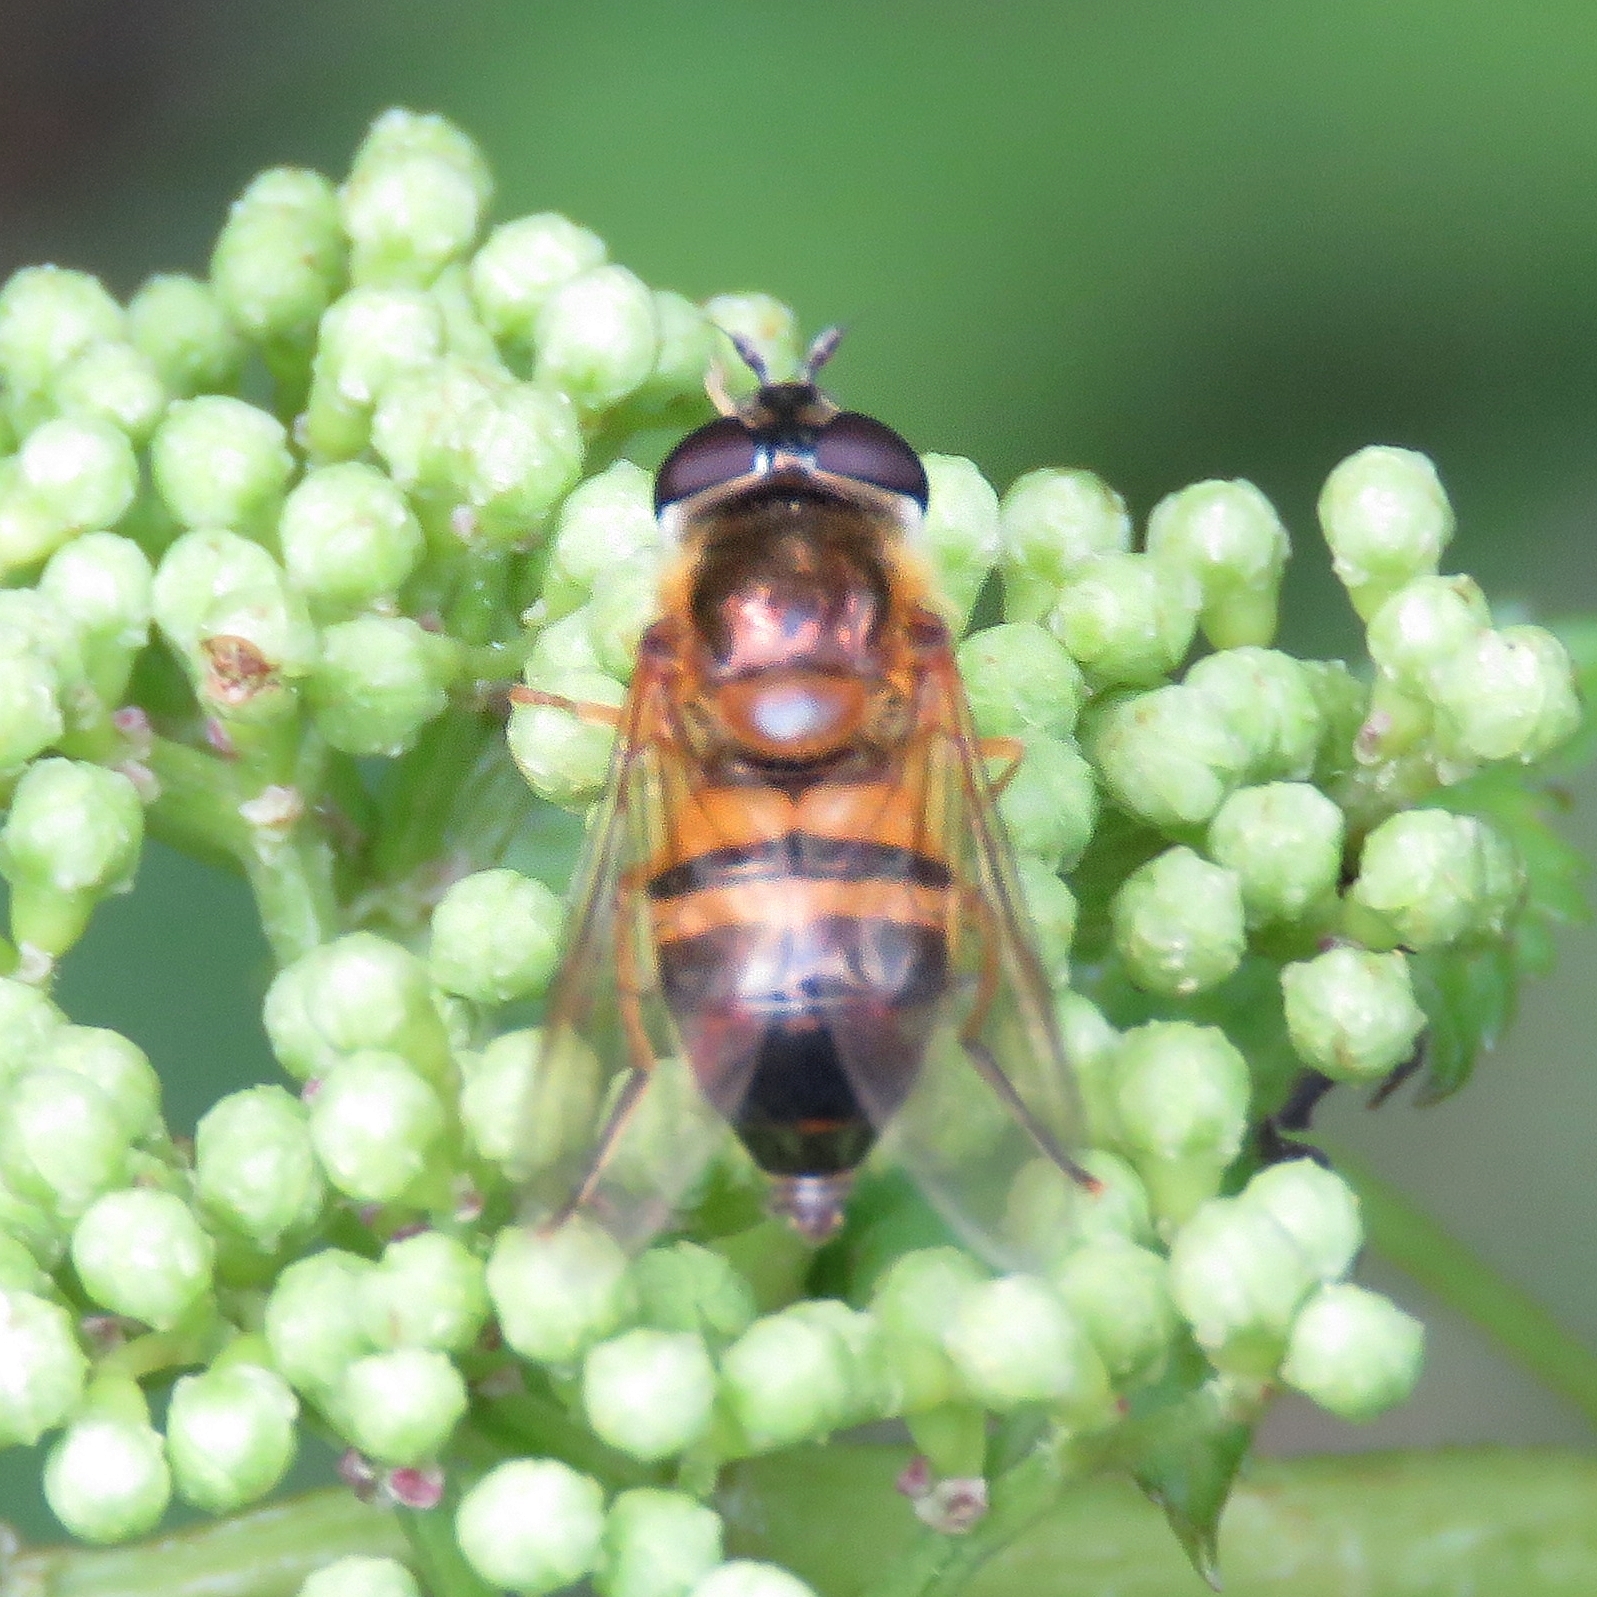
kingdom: Animalia
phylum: Arthropoda
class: Insecta
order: Diptera
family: Syrphidae
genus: Epistrophe
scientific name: Epistrophe eligans
